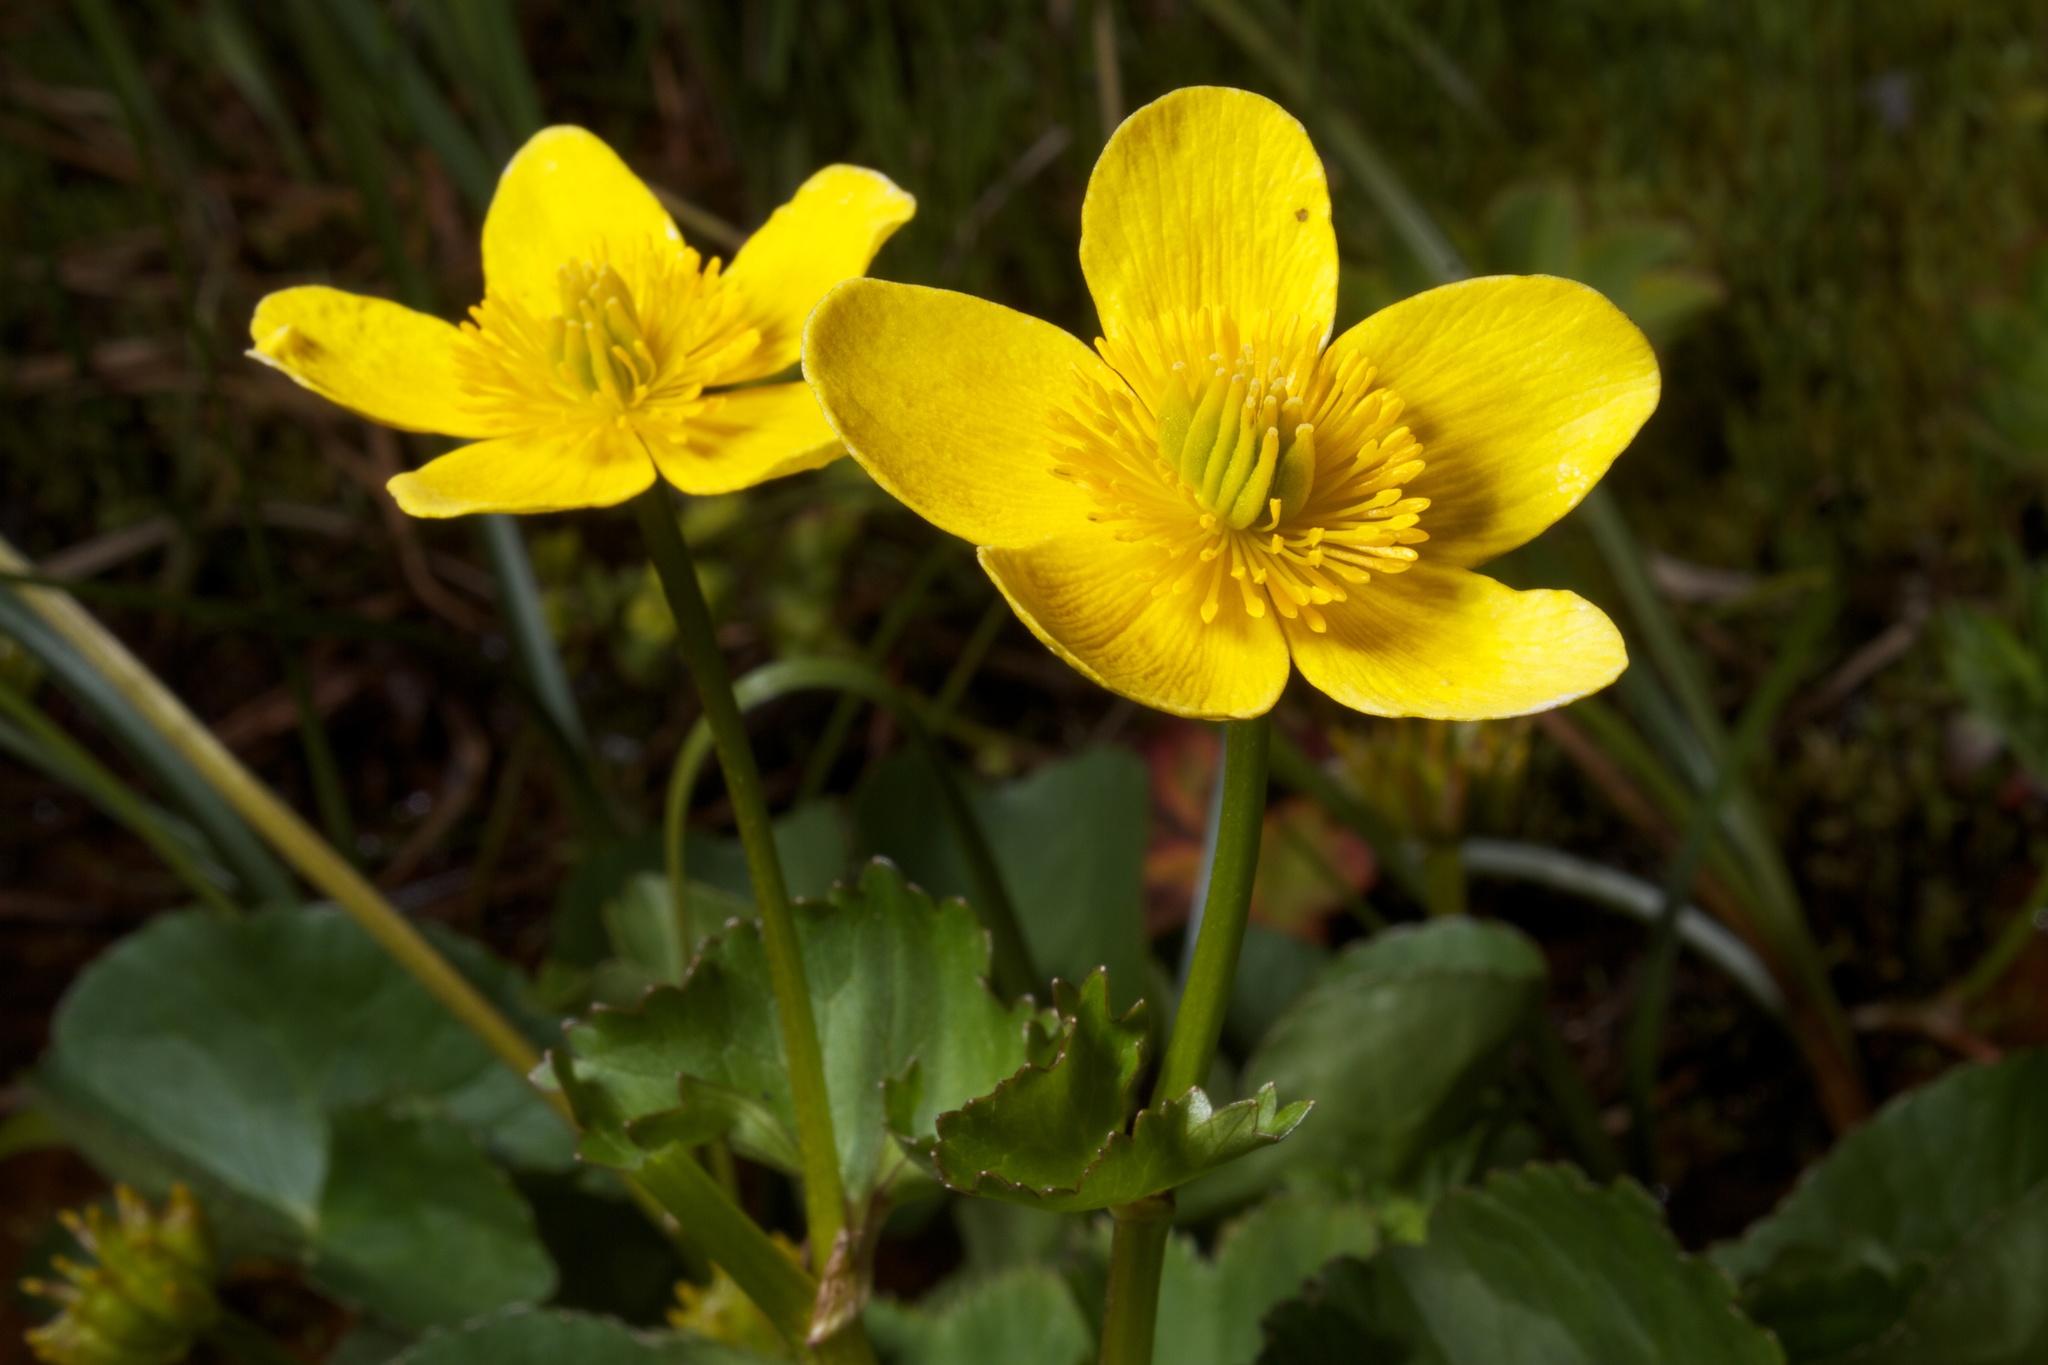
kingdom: Plantae
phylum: Tracheophyta
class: Magnoliopsida
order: Ranunculales
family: Ranunculaceae
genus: Caltha
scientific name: Caltha palustris
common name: Marsh marigold
